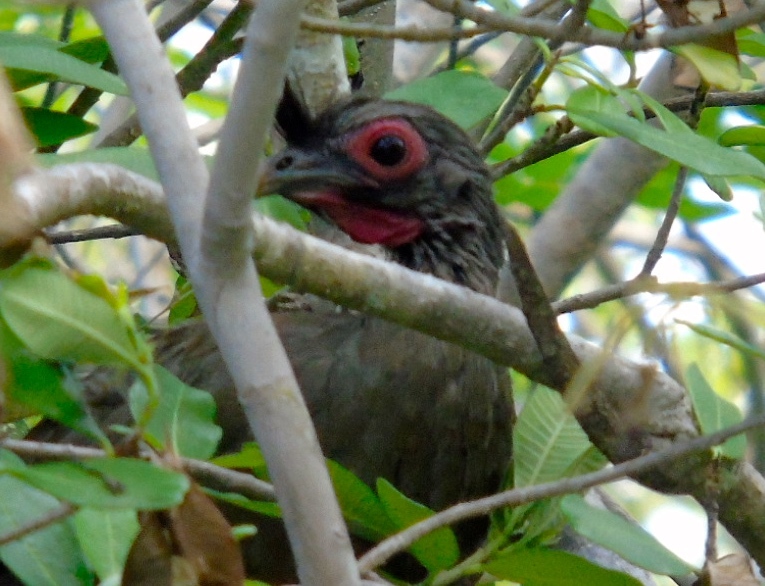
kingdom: Animalia
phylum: Chordata
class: Aves
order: Galliformes
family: Cracidae
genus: Ortalis
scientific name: Ortalis wagleri
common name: Rufous-bellied chachalaca
